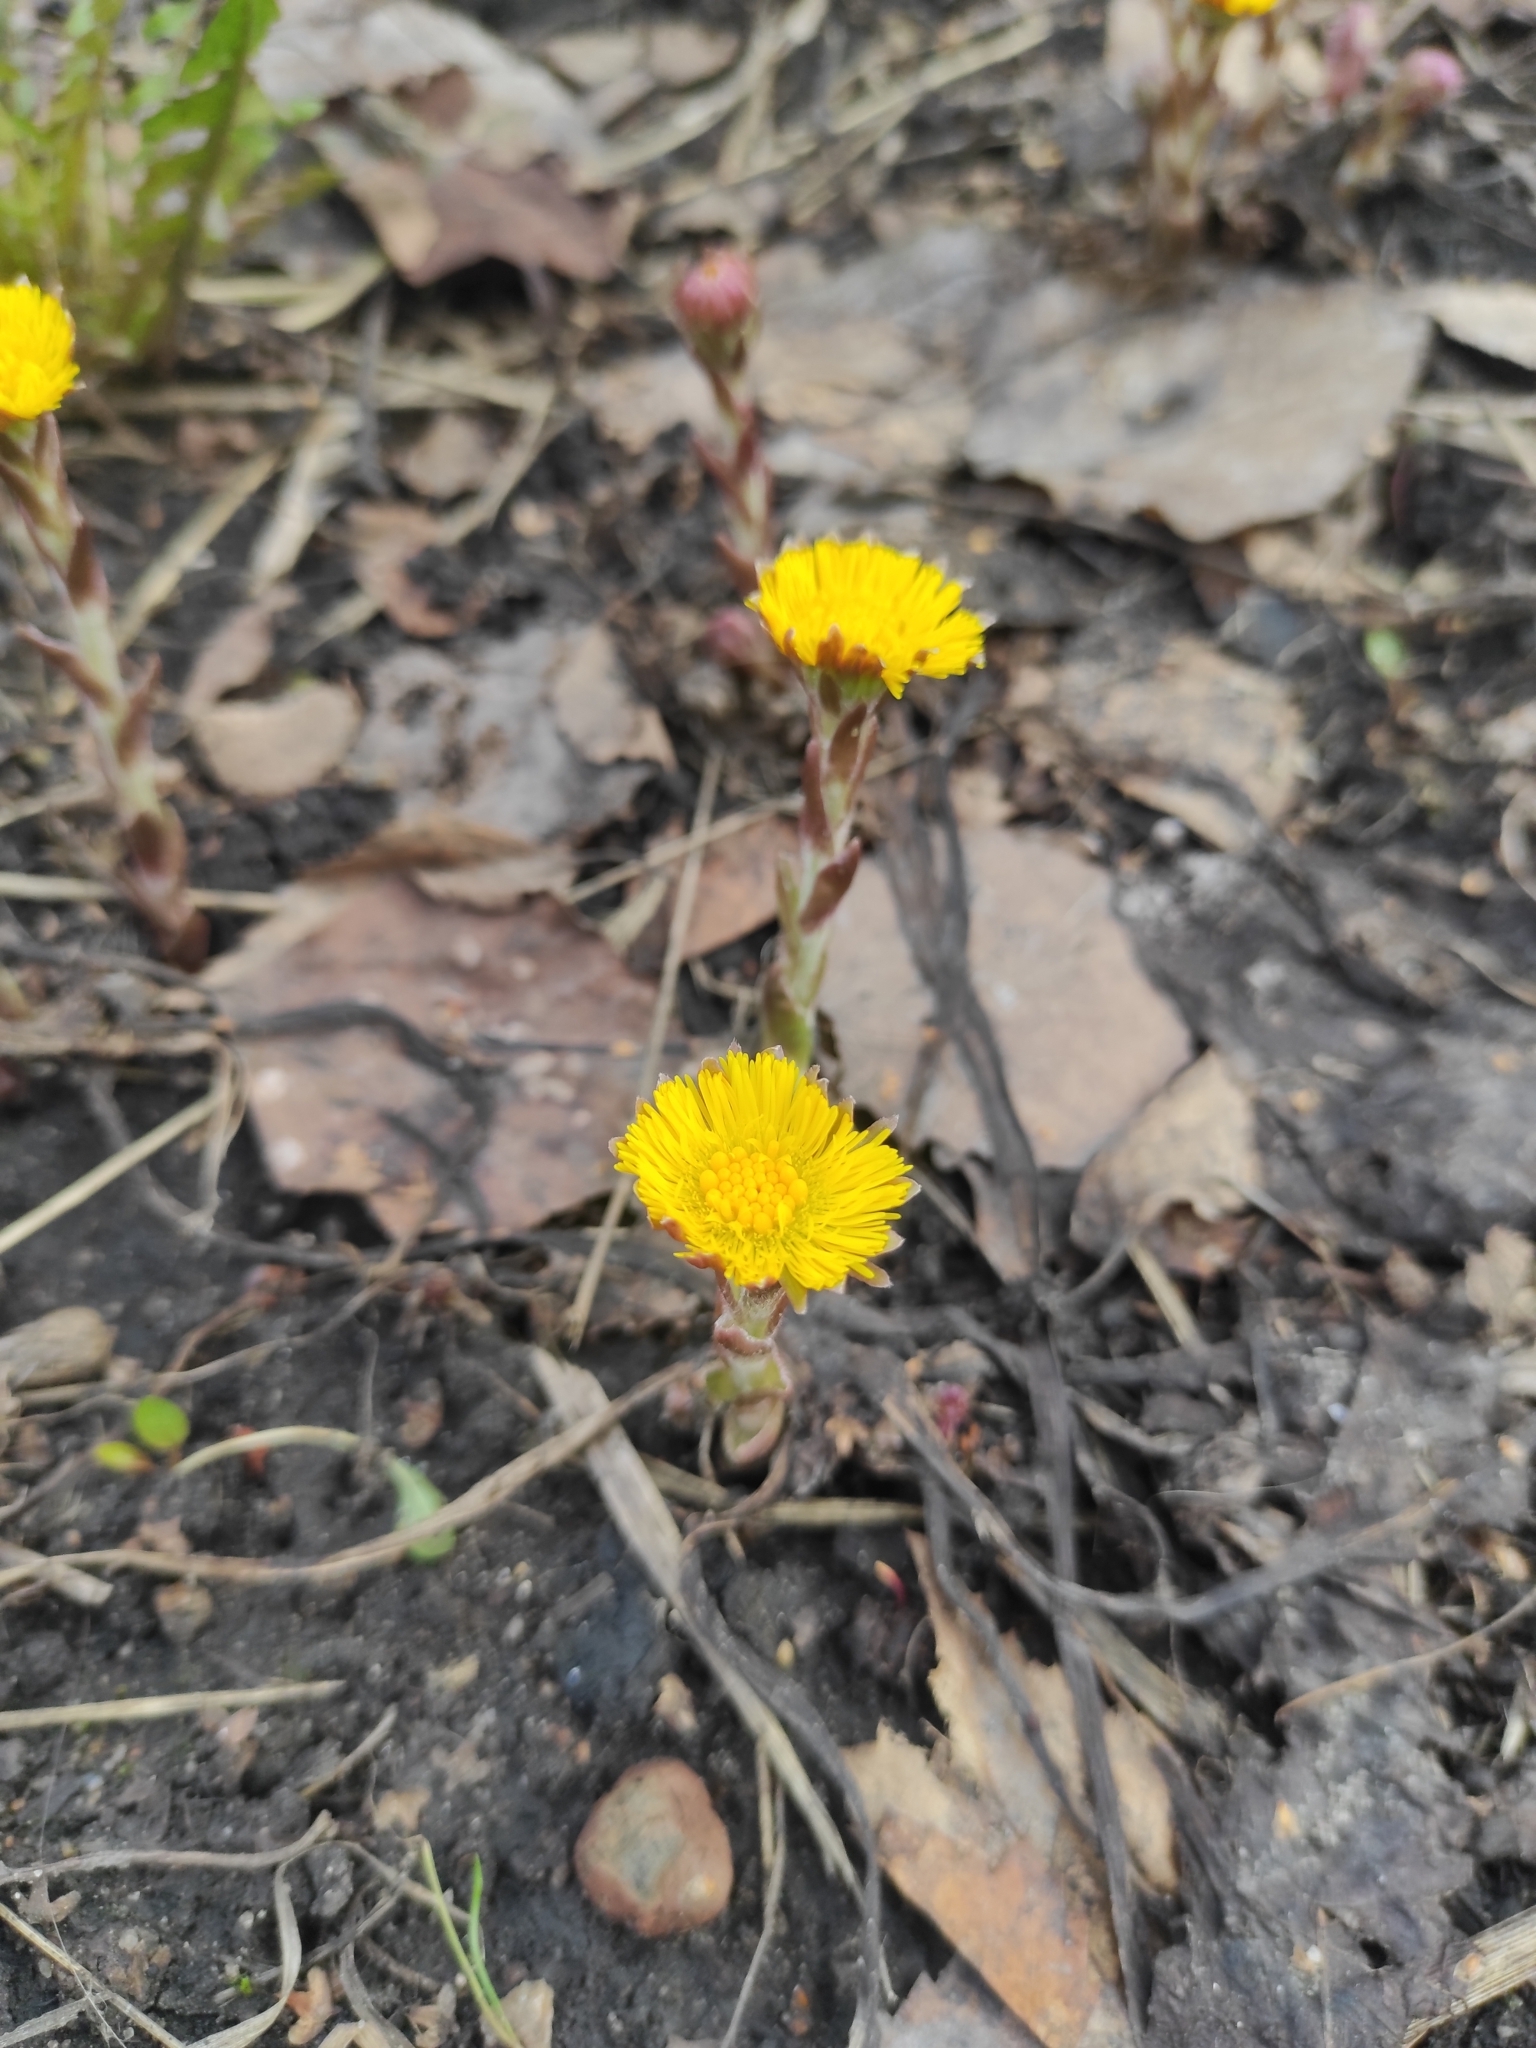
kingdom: Plantae
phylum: Tracheophyta
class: Magnoliopsida
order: Asterales
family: Asteraceae
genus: Tussilago
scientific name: Tussilago farfara
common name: Coltsfoot
